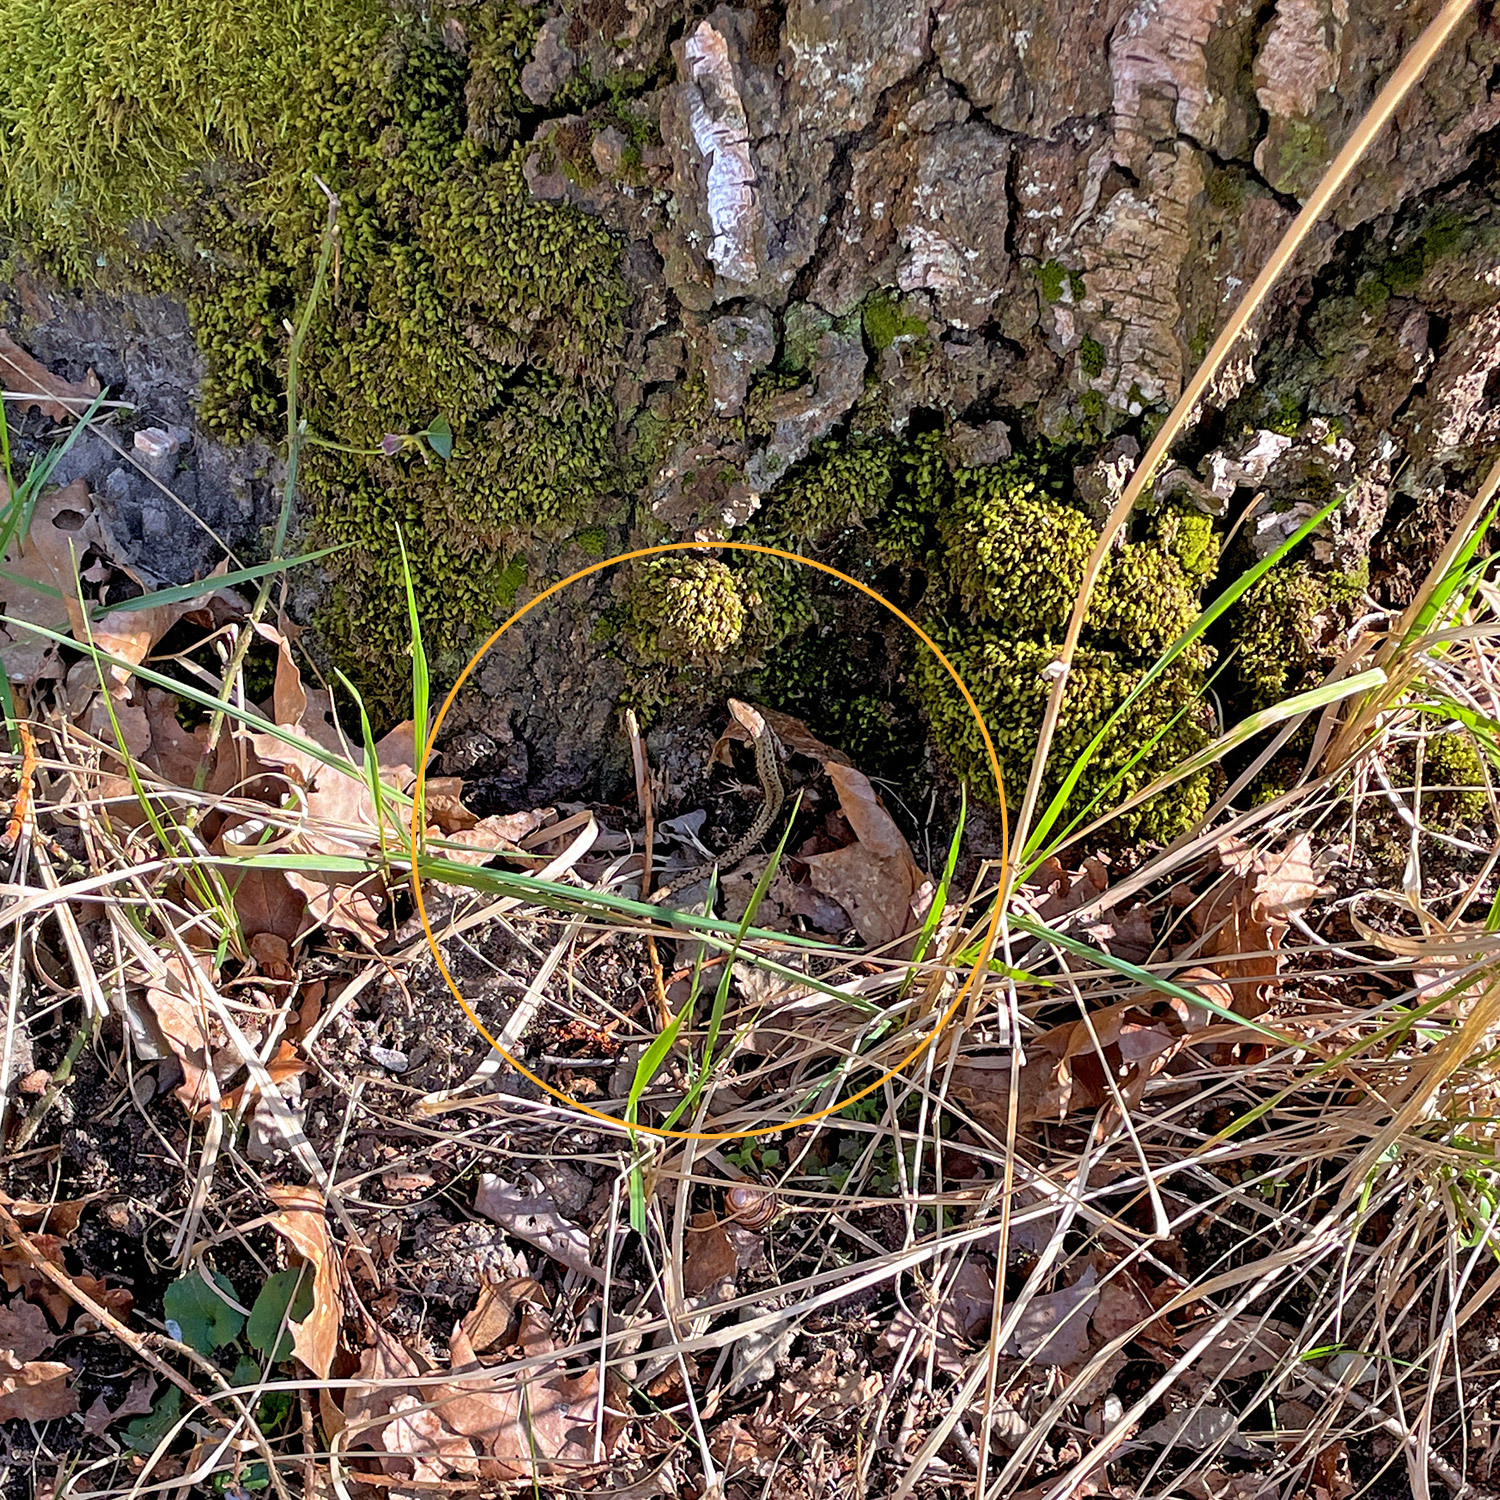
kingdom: Animalia
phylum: Chordata
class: Squamata
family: Lacertidae
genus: Zootoca
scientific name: Zootoca vivipara
